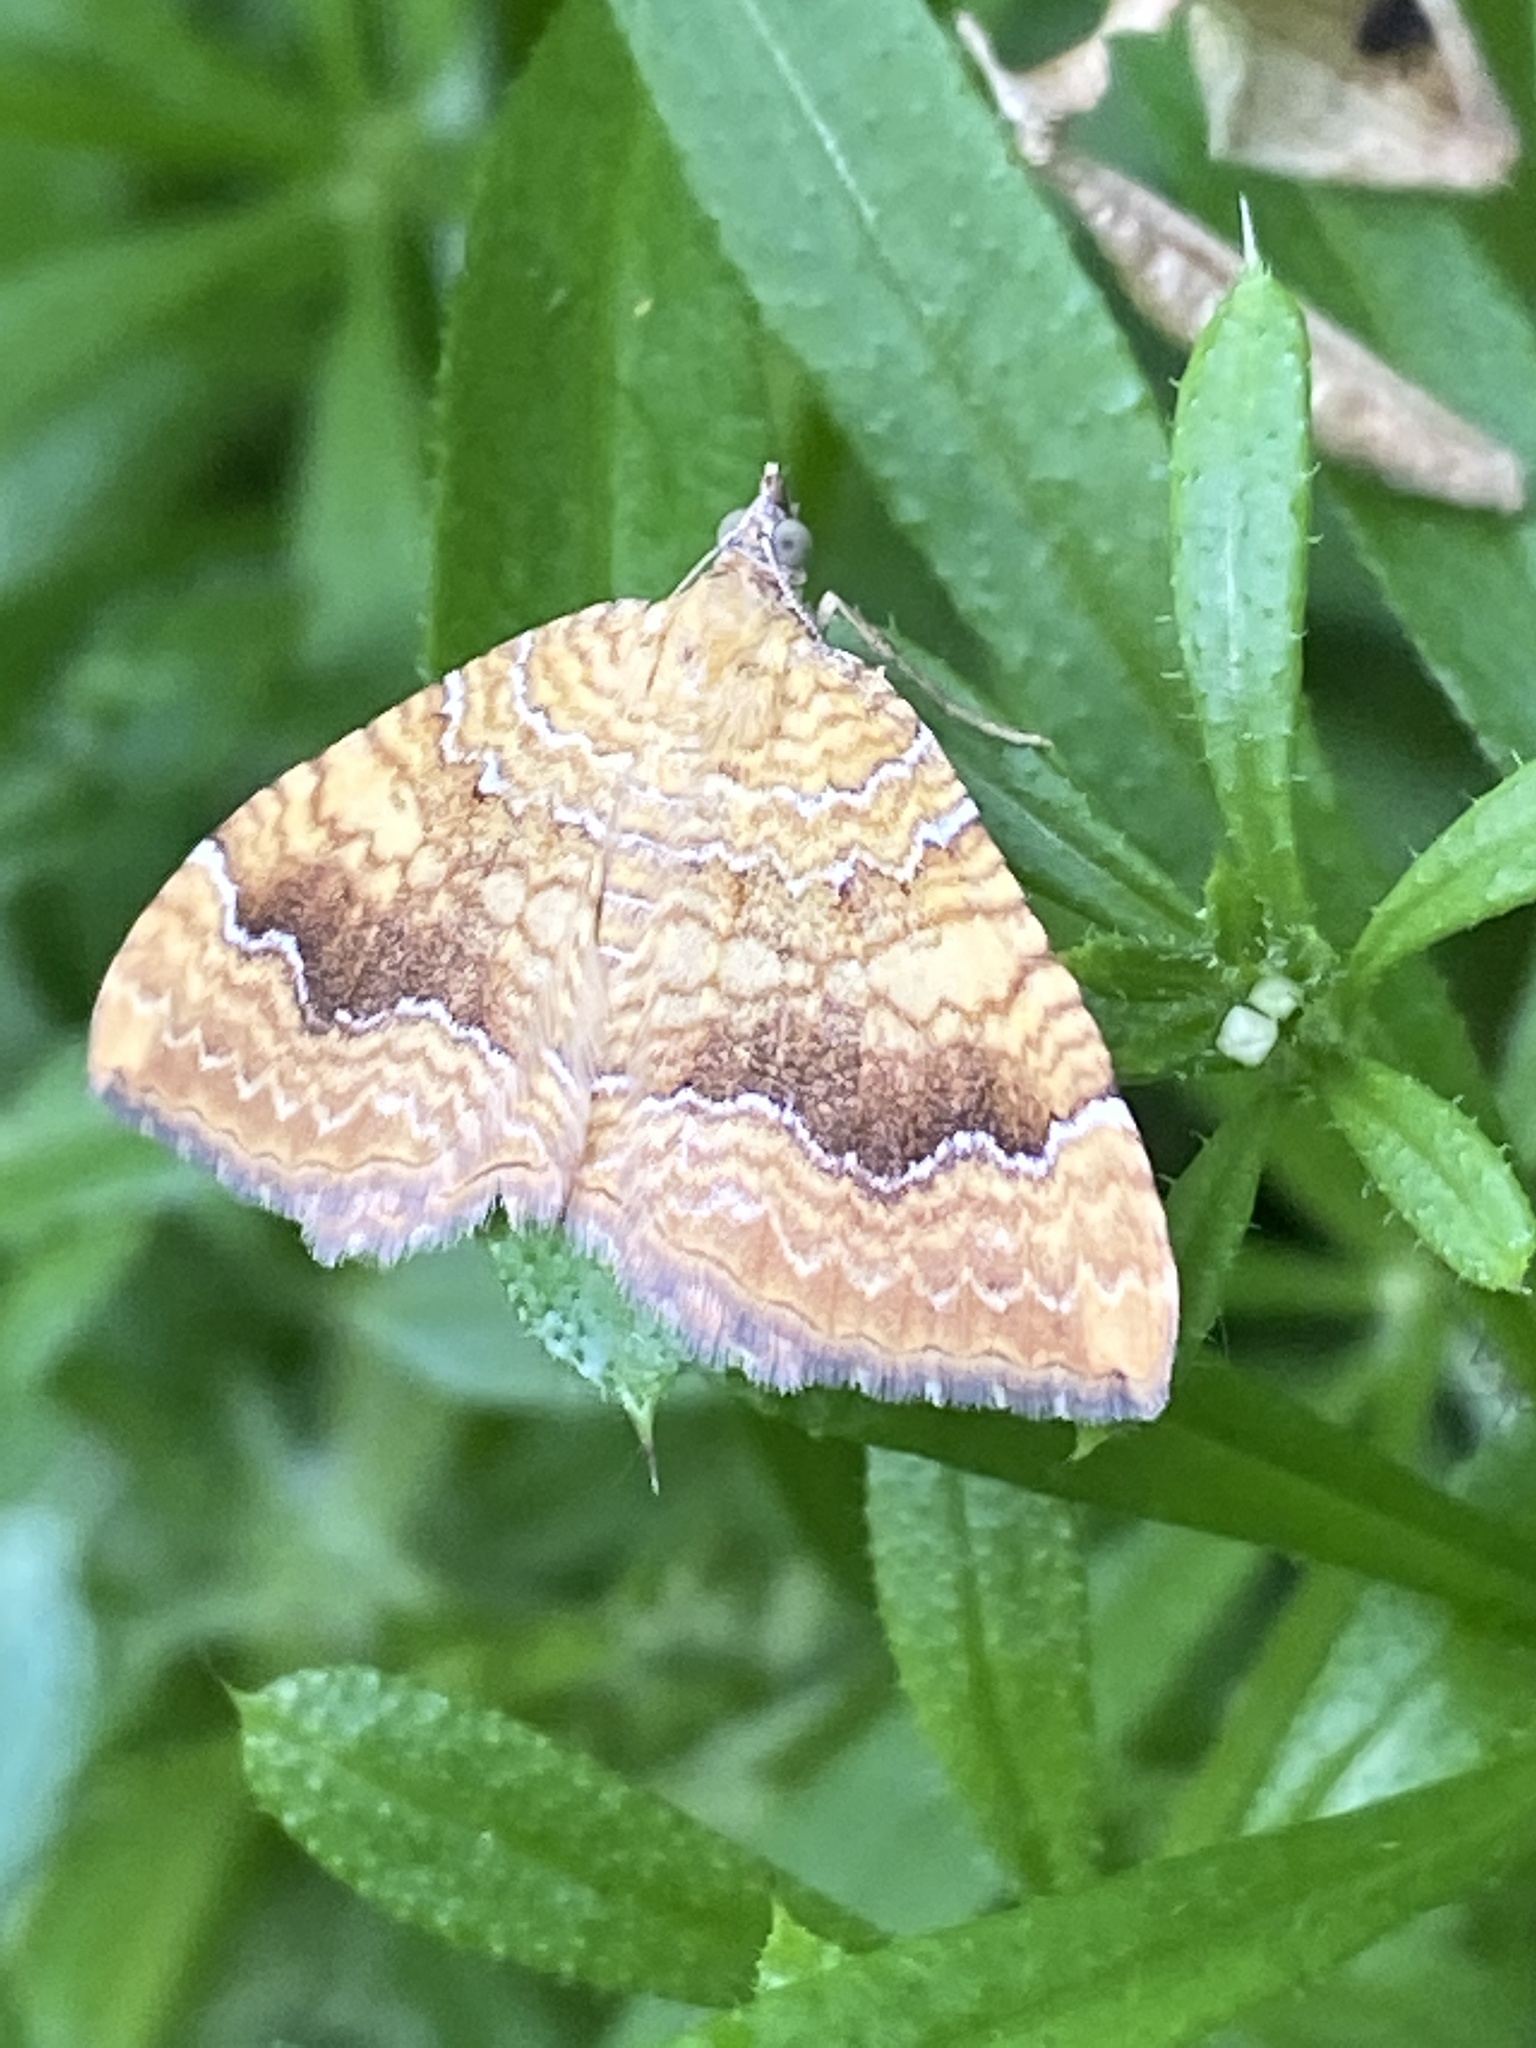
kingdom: Animalia
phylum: Arthropoda
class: Insecta
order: Lepidoptera
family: Geometridae
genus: Camptogramma
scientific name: Camptogramma bilineata
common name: Yellow shell
